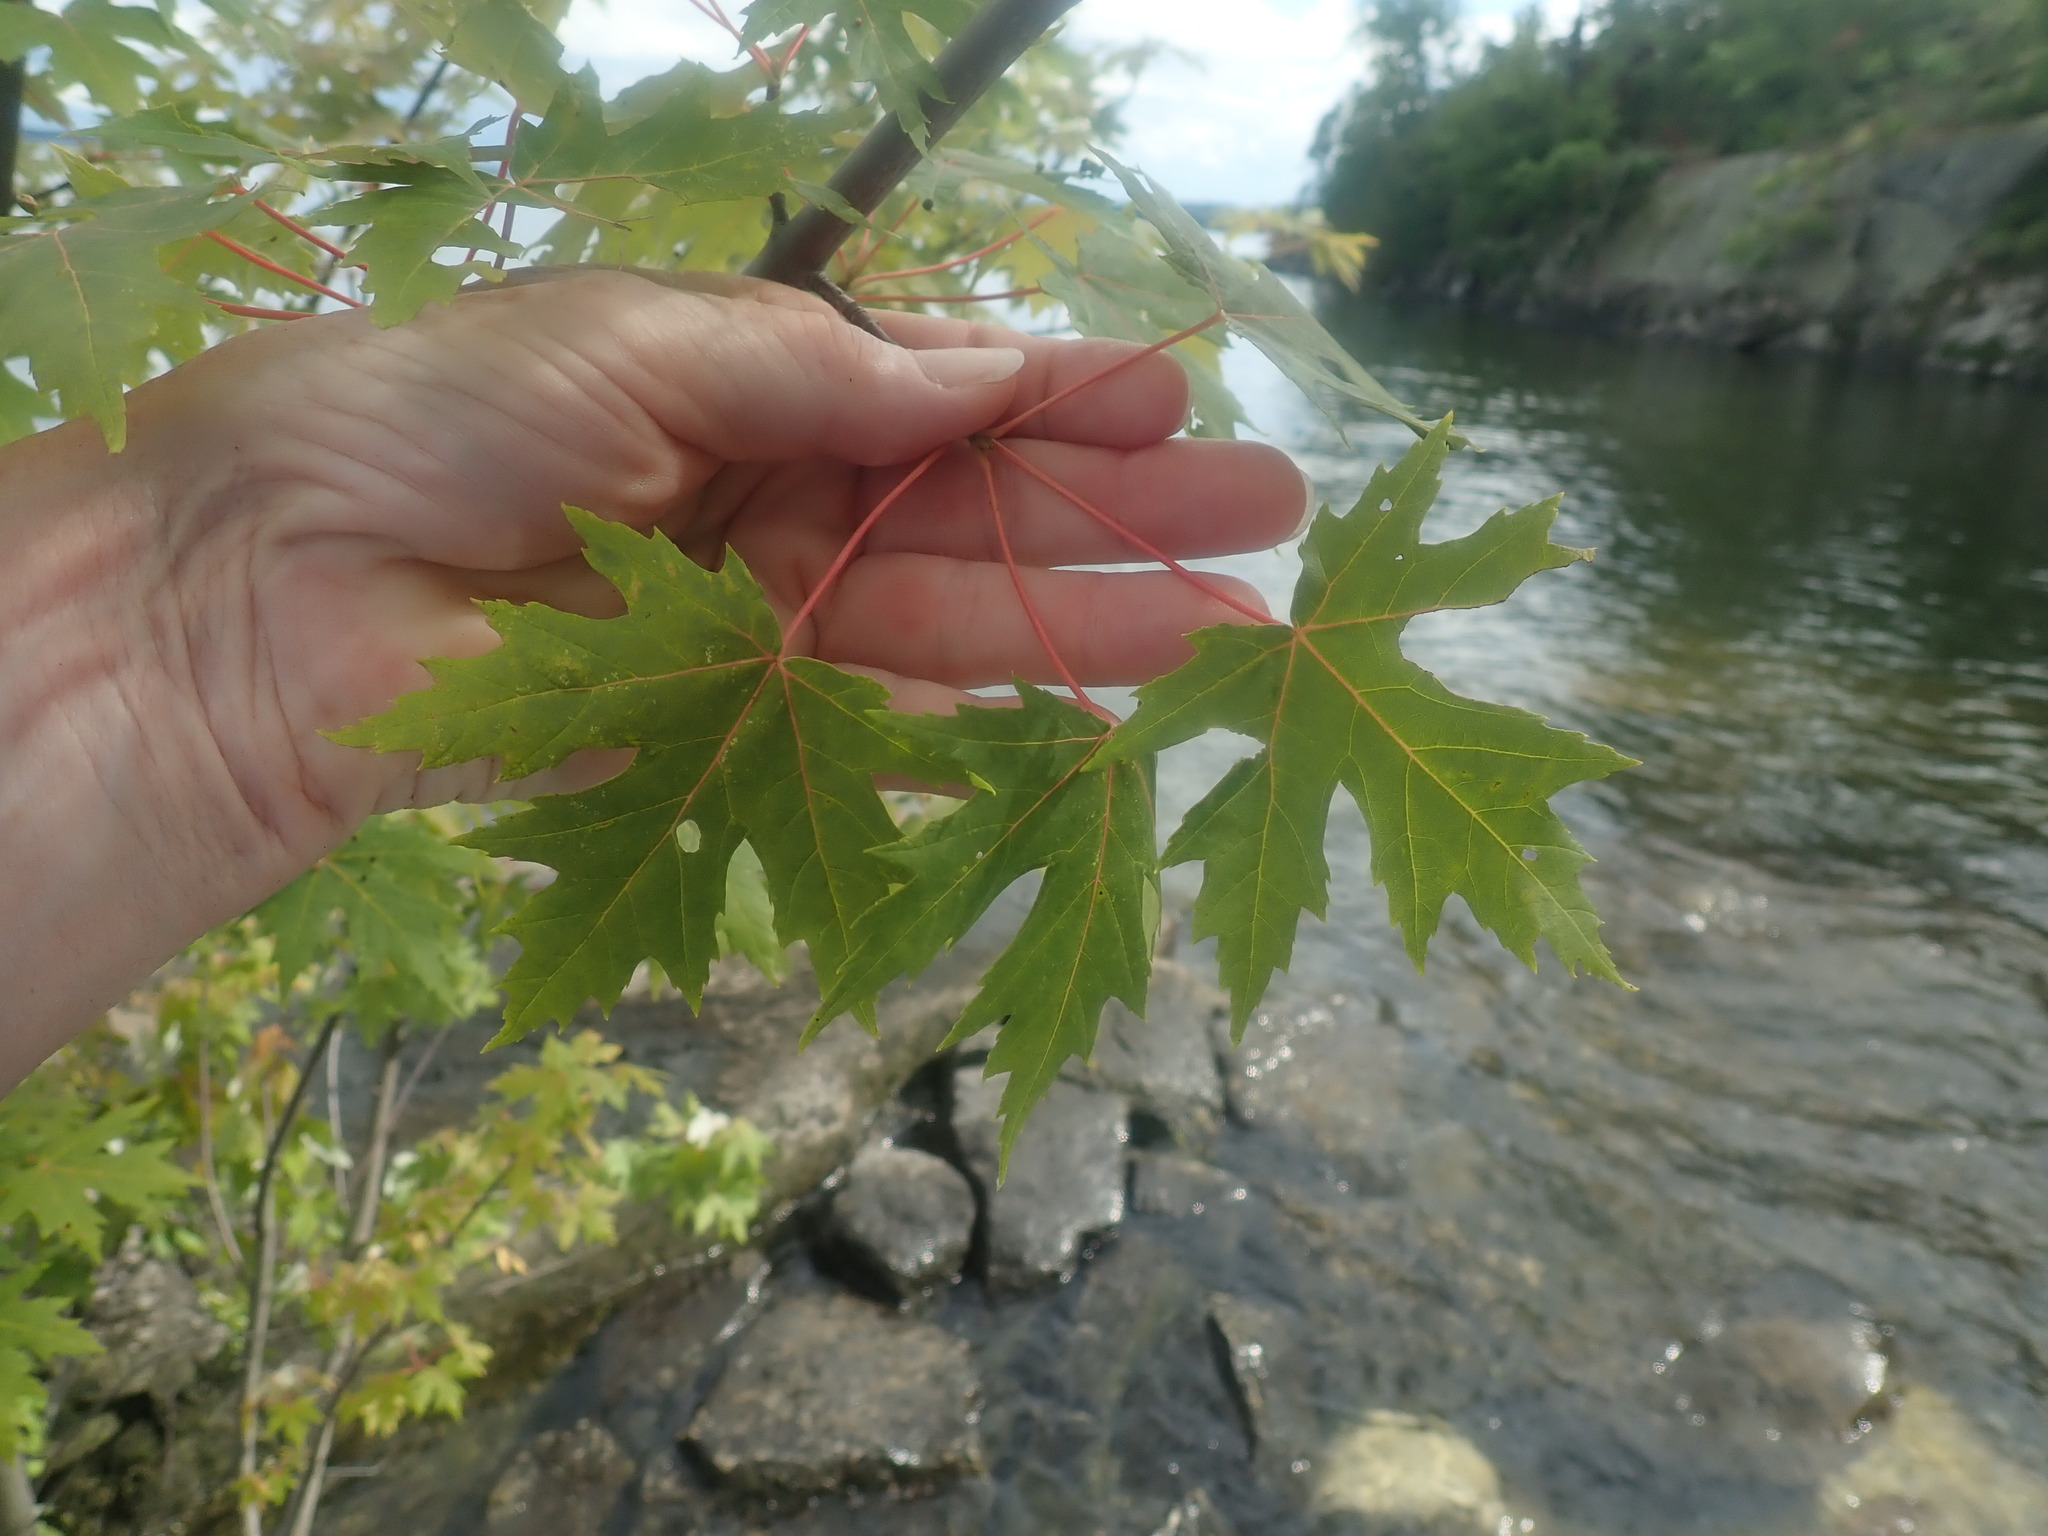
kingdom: Plantae
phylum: Tracheophyta
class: Magnoliopsida
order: Sapindales
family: Sapindaceae
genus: Acer
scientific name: Acer saccharinum
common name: Silver maple
